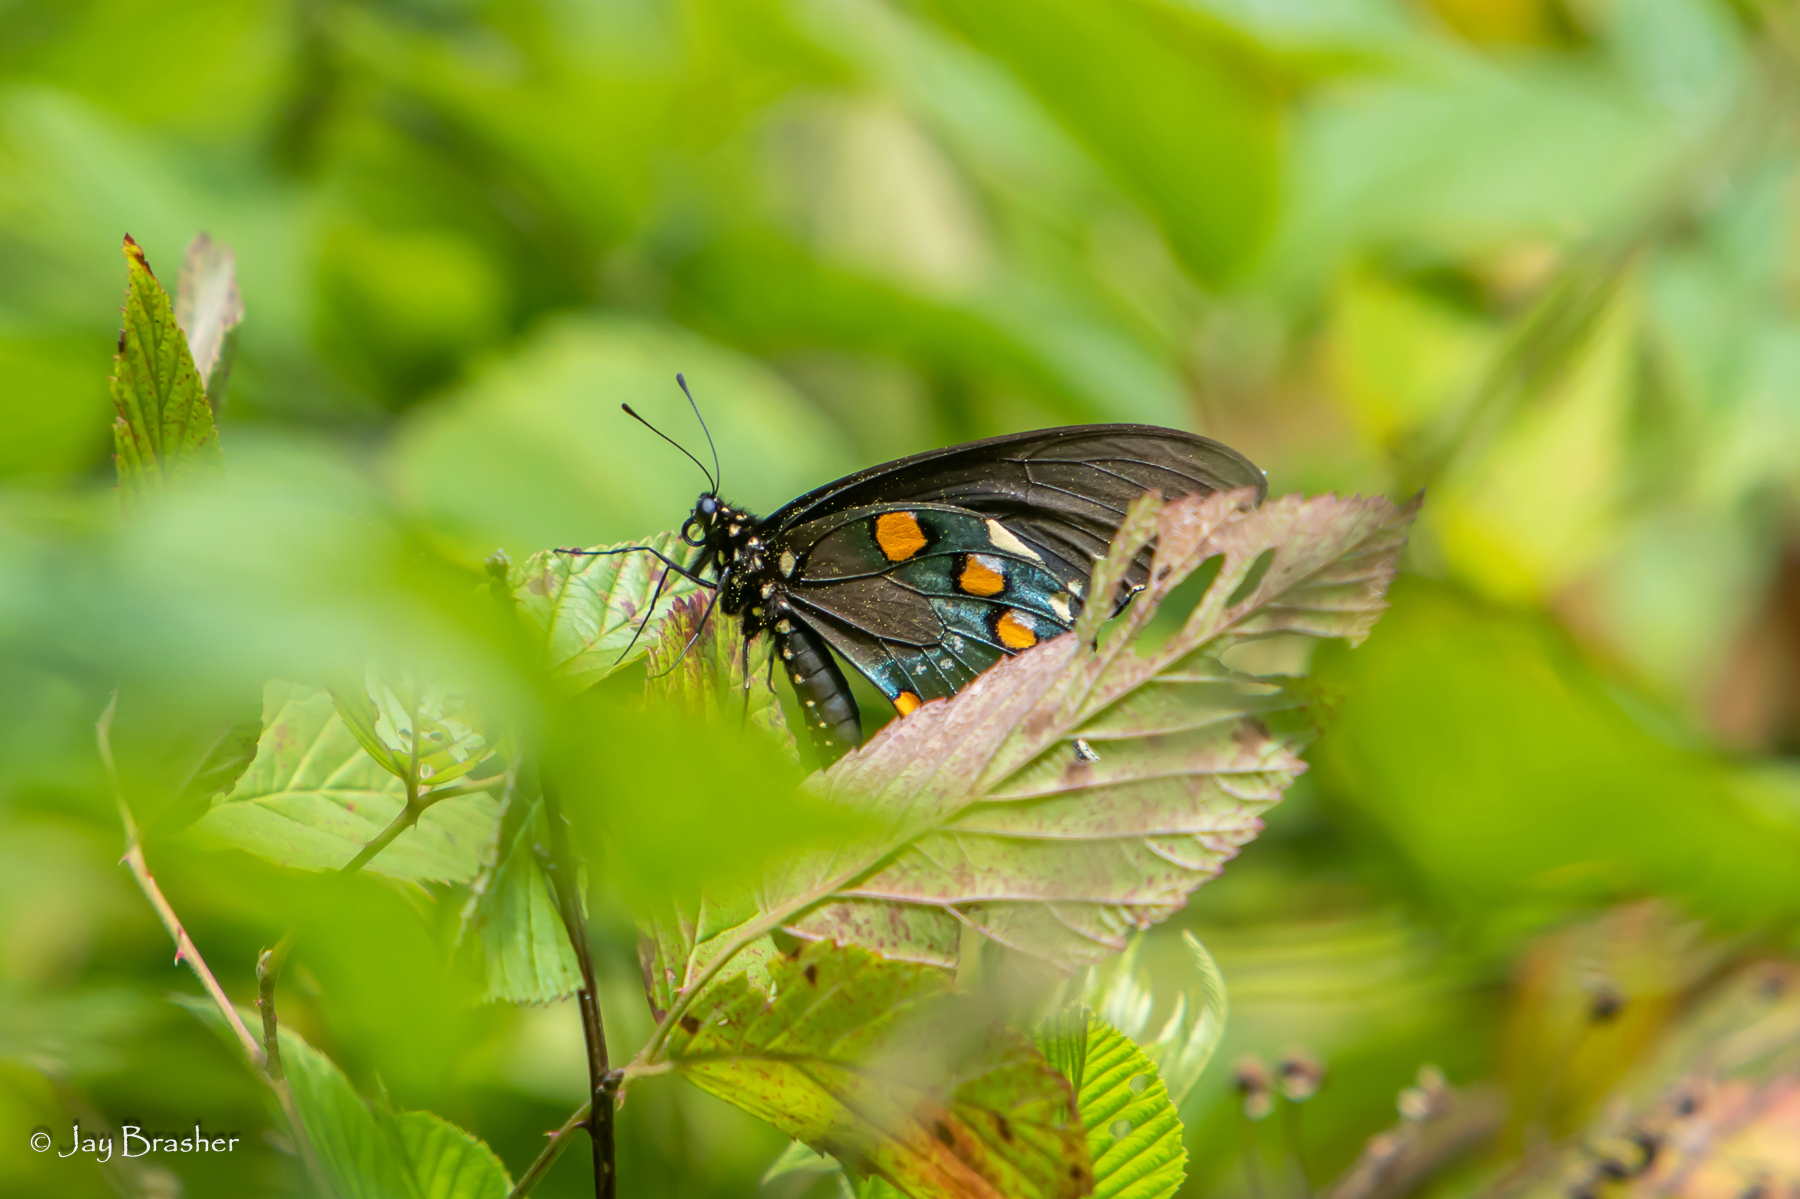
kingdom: Animalia
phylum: Arthropoda
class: Insecta
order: Lepidoptera
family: Papilionidae
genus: Battus
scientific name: Battus philenor
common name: Pipevine swallowtail
